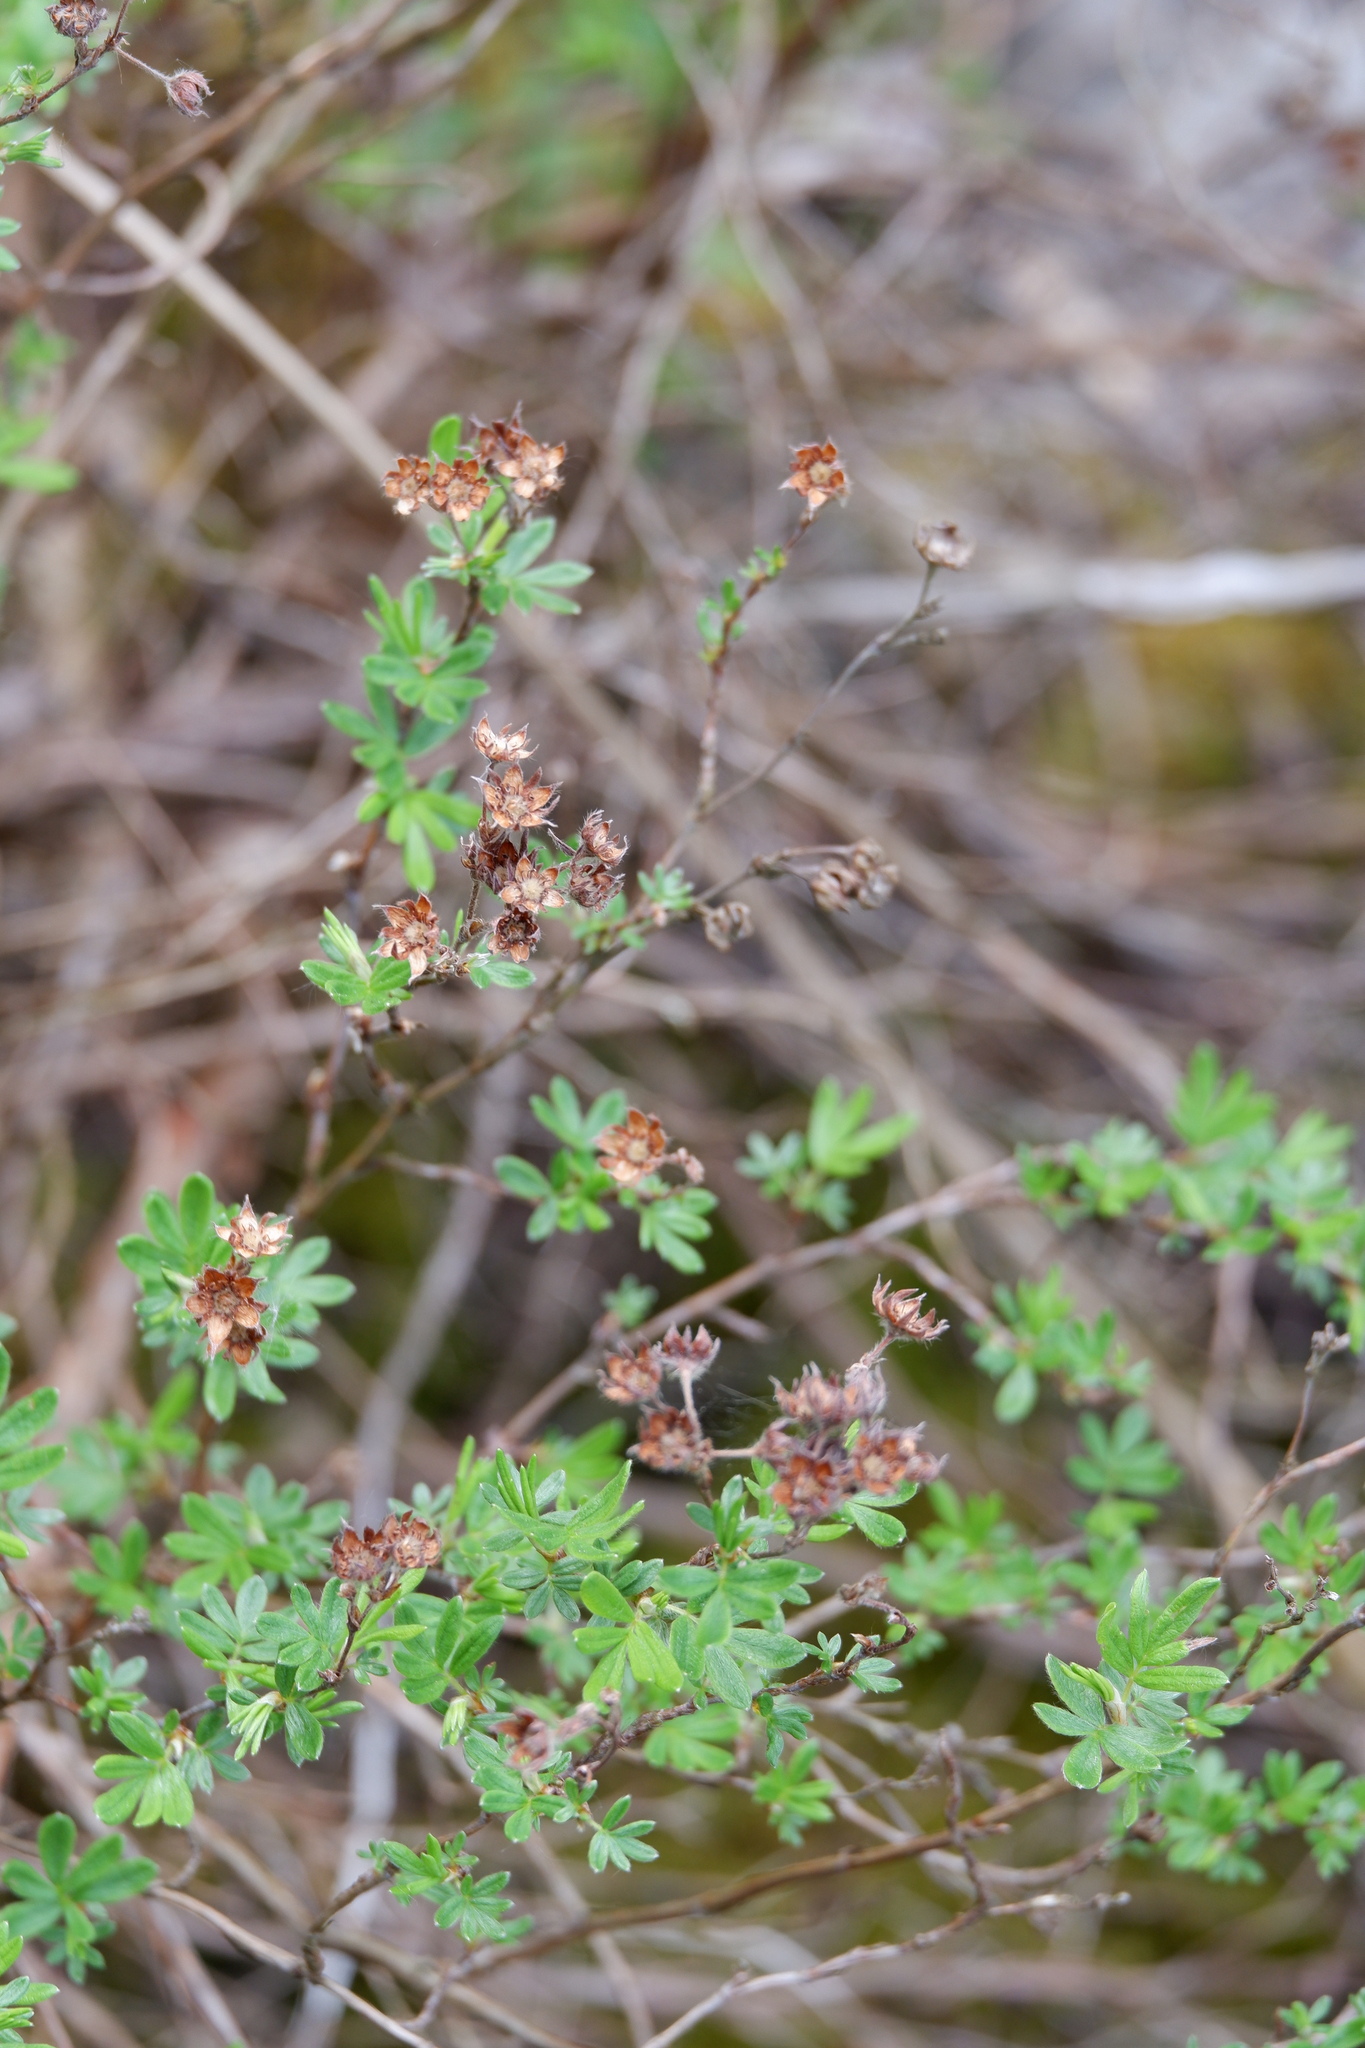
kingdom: Plantae
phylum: Tracheophyta
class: Magnoliopsida
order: Rosales
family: Rosaceae
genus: Dasiphora
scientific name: Dasiphora fruticosa
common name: Shrubby cinquefoil
